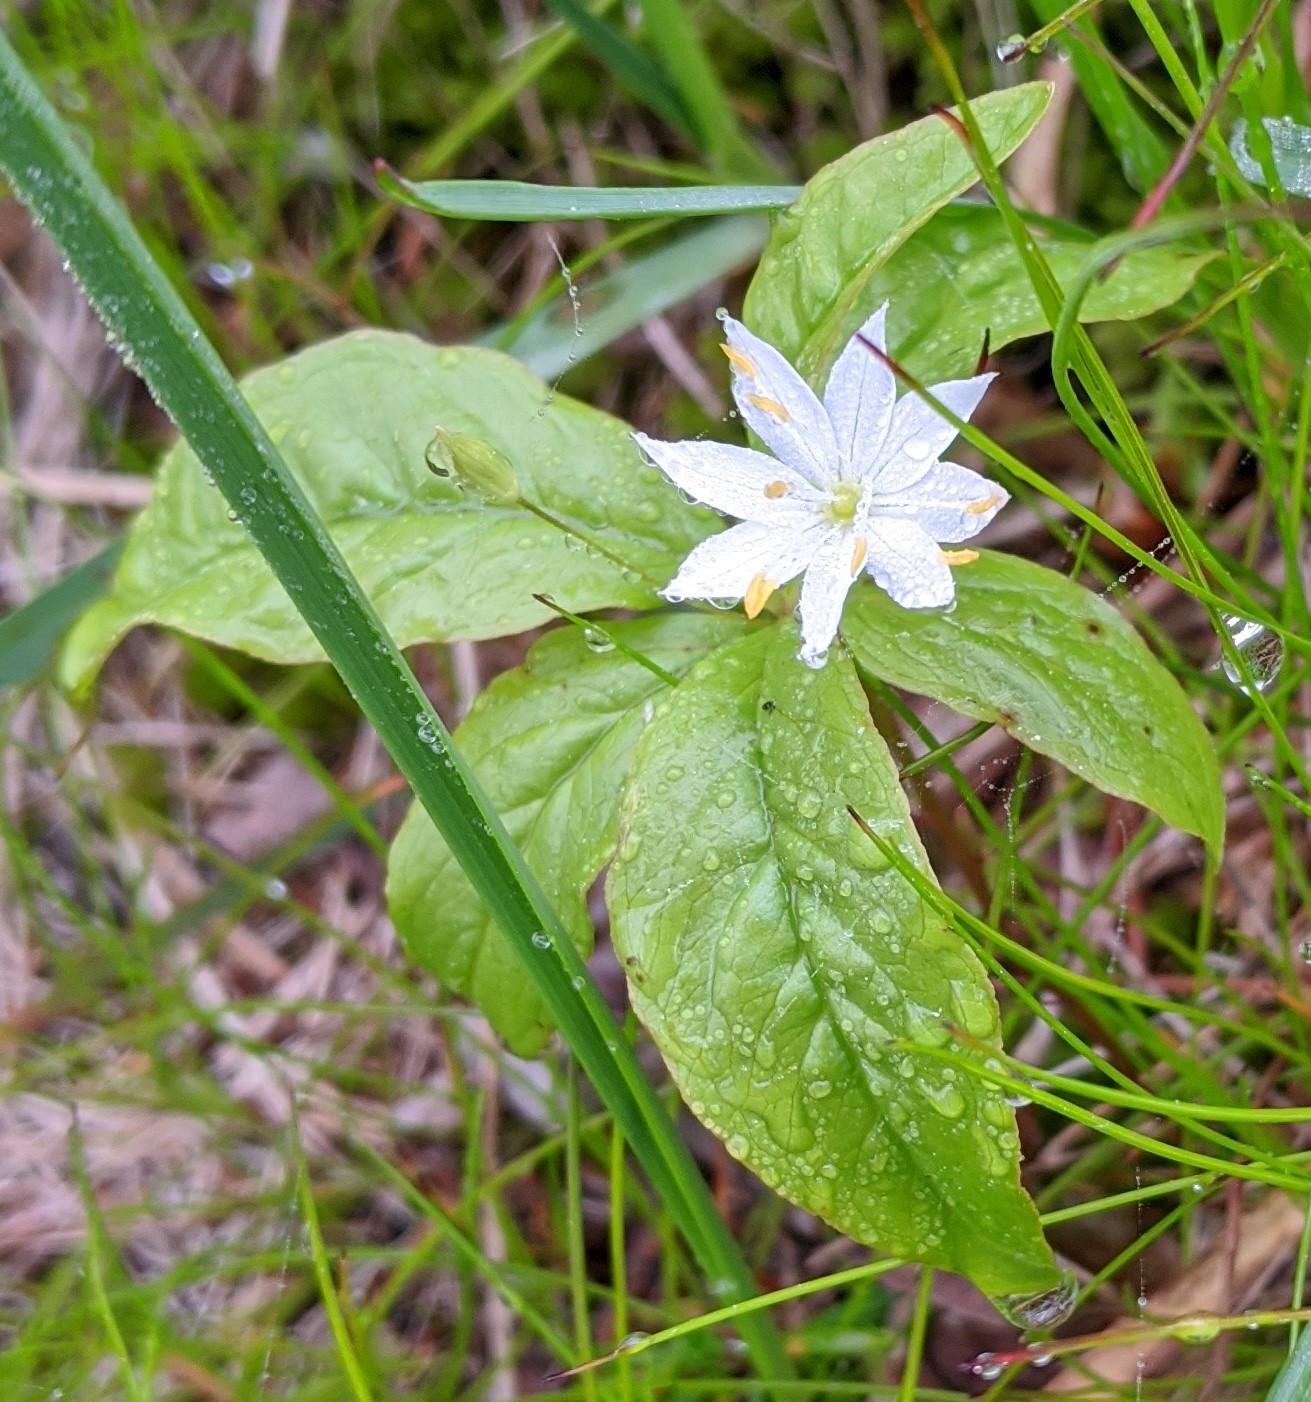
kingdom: Plantae
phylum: Tracheophyta
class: Magnoliopsida
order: Ericales
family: Primulaceae
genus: Lysimachia
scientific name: Lysimachia borealis
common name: American starflower
